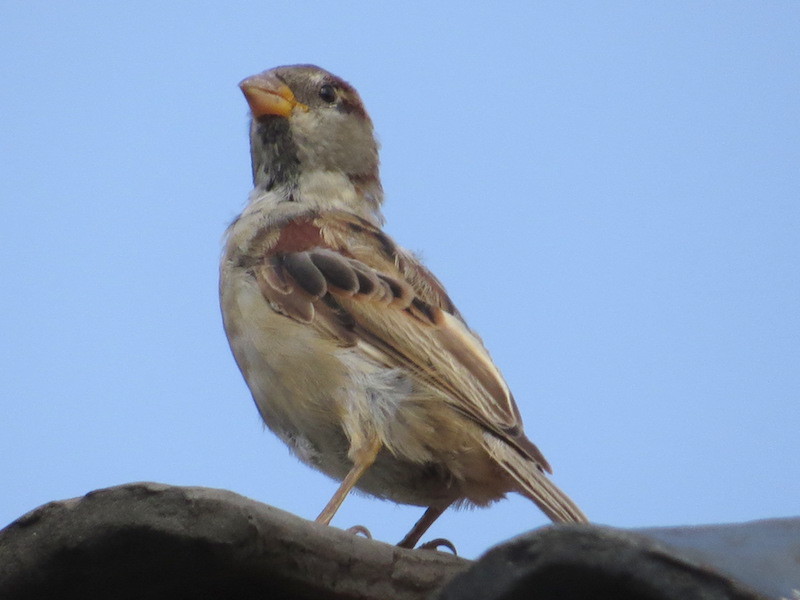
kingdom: Animalia
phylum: Chordata
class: Aves
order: Passeriformes
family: Passeridae
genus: Passer
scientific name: Passer domesticus
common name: House sparrow
